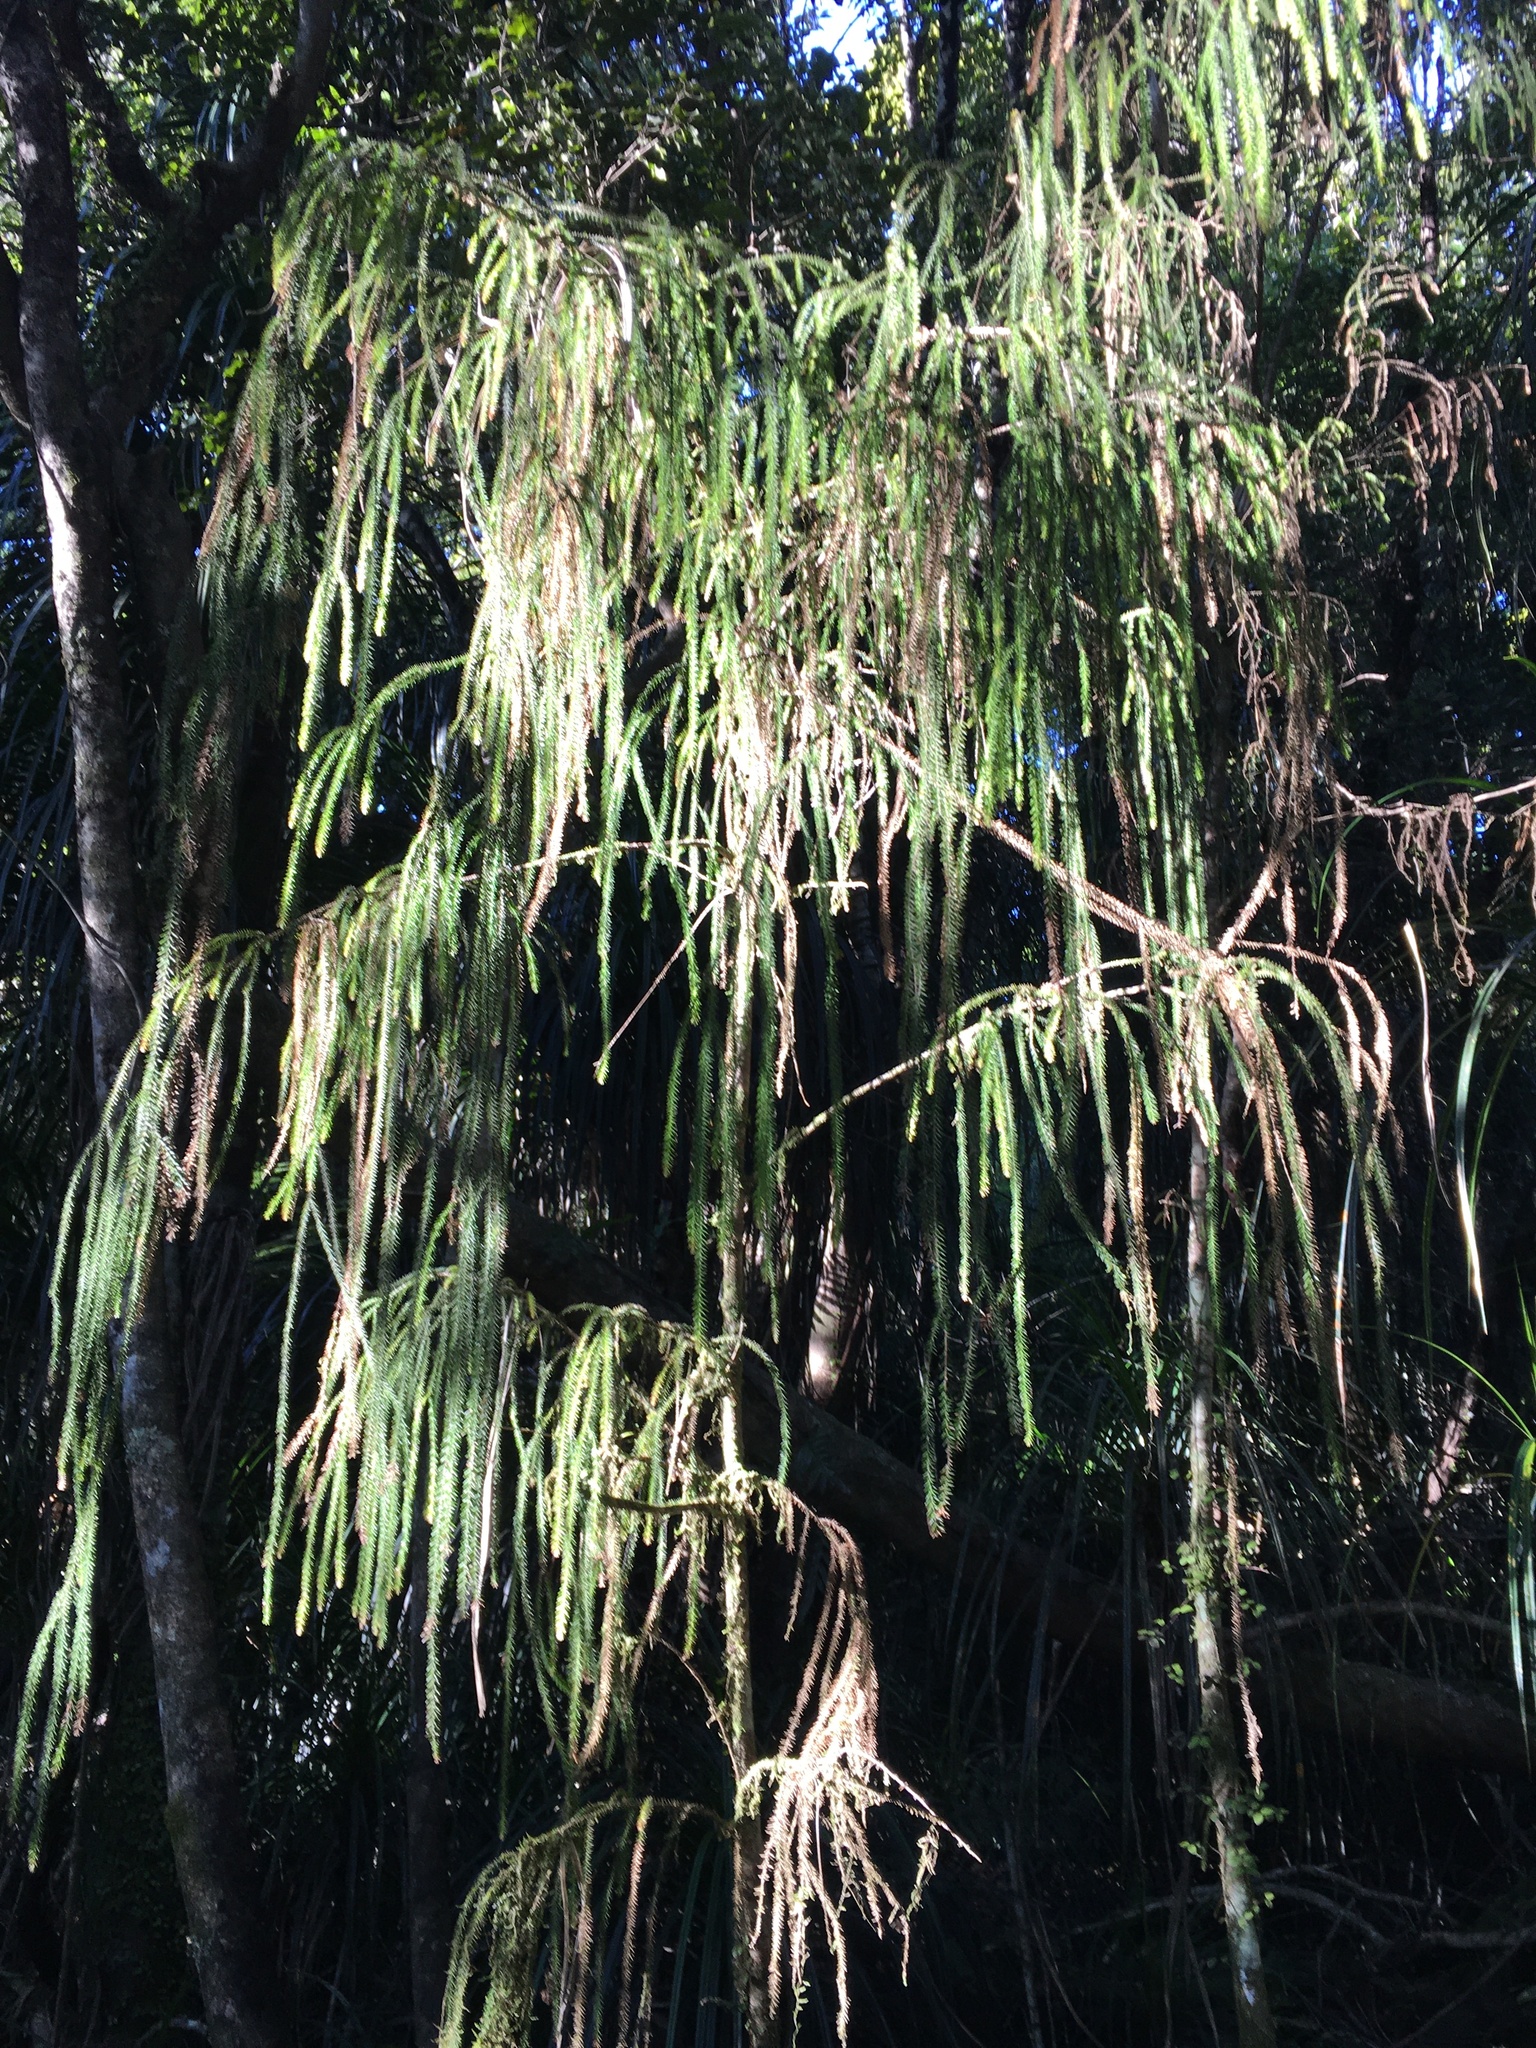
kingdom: Plantae
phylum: Tracheophyta
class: Pinopsida
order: Pinales
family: Podocarpaceae
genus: Dacrydium
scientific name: Dacrydium cupressinum
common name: Red pine
